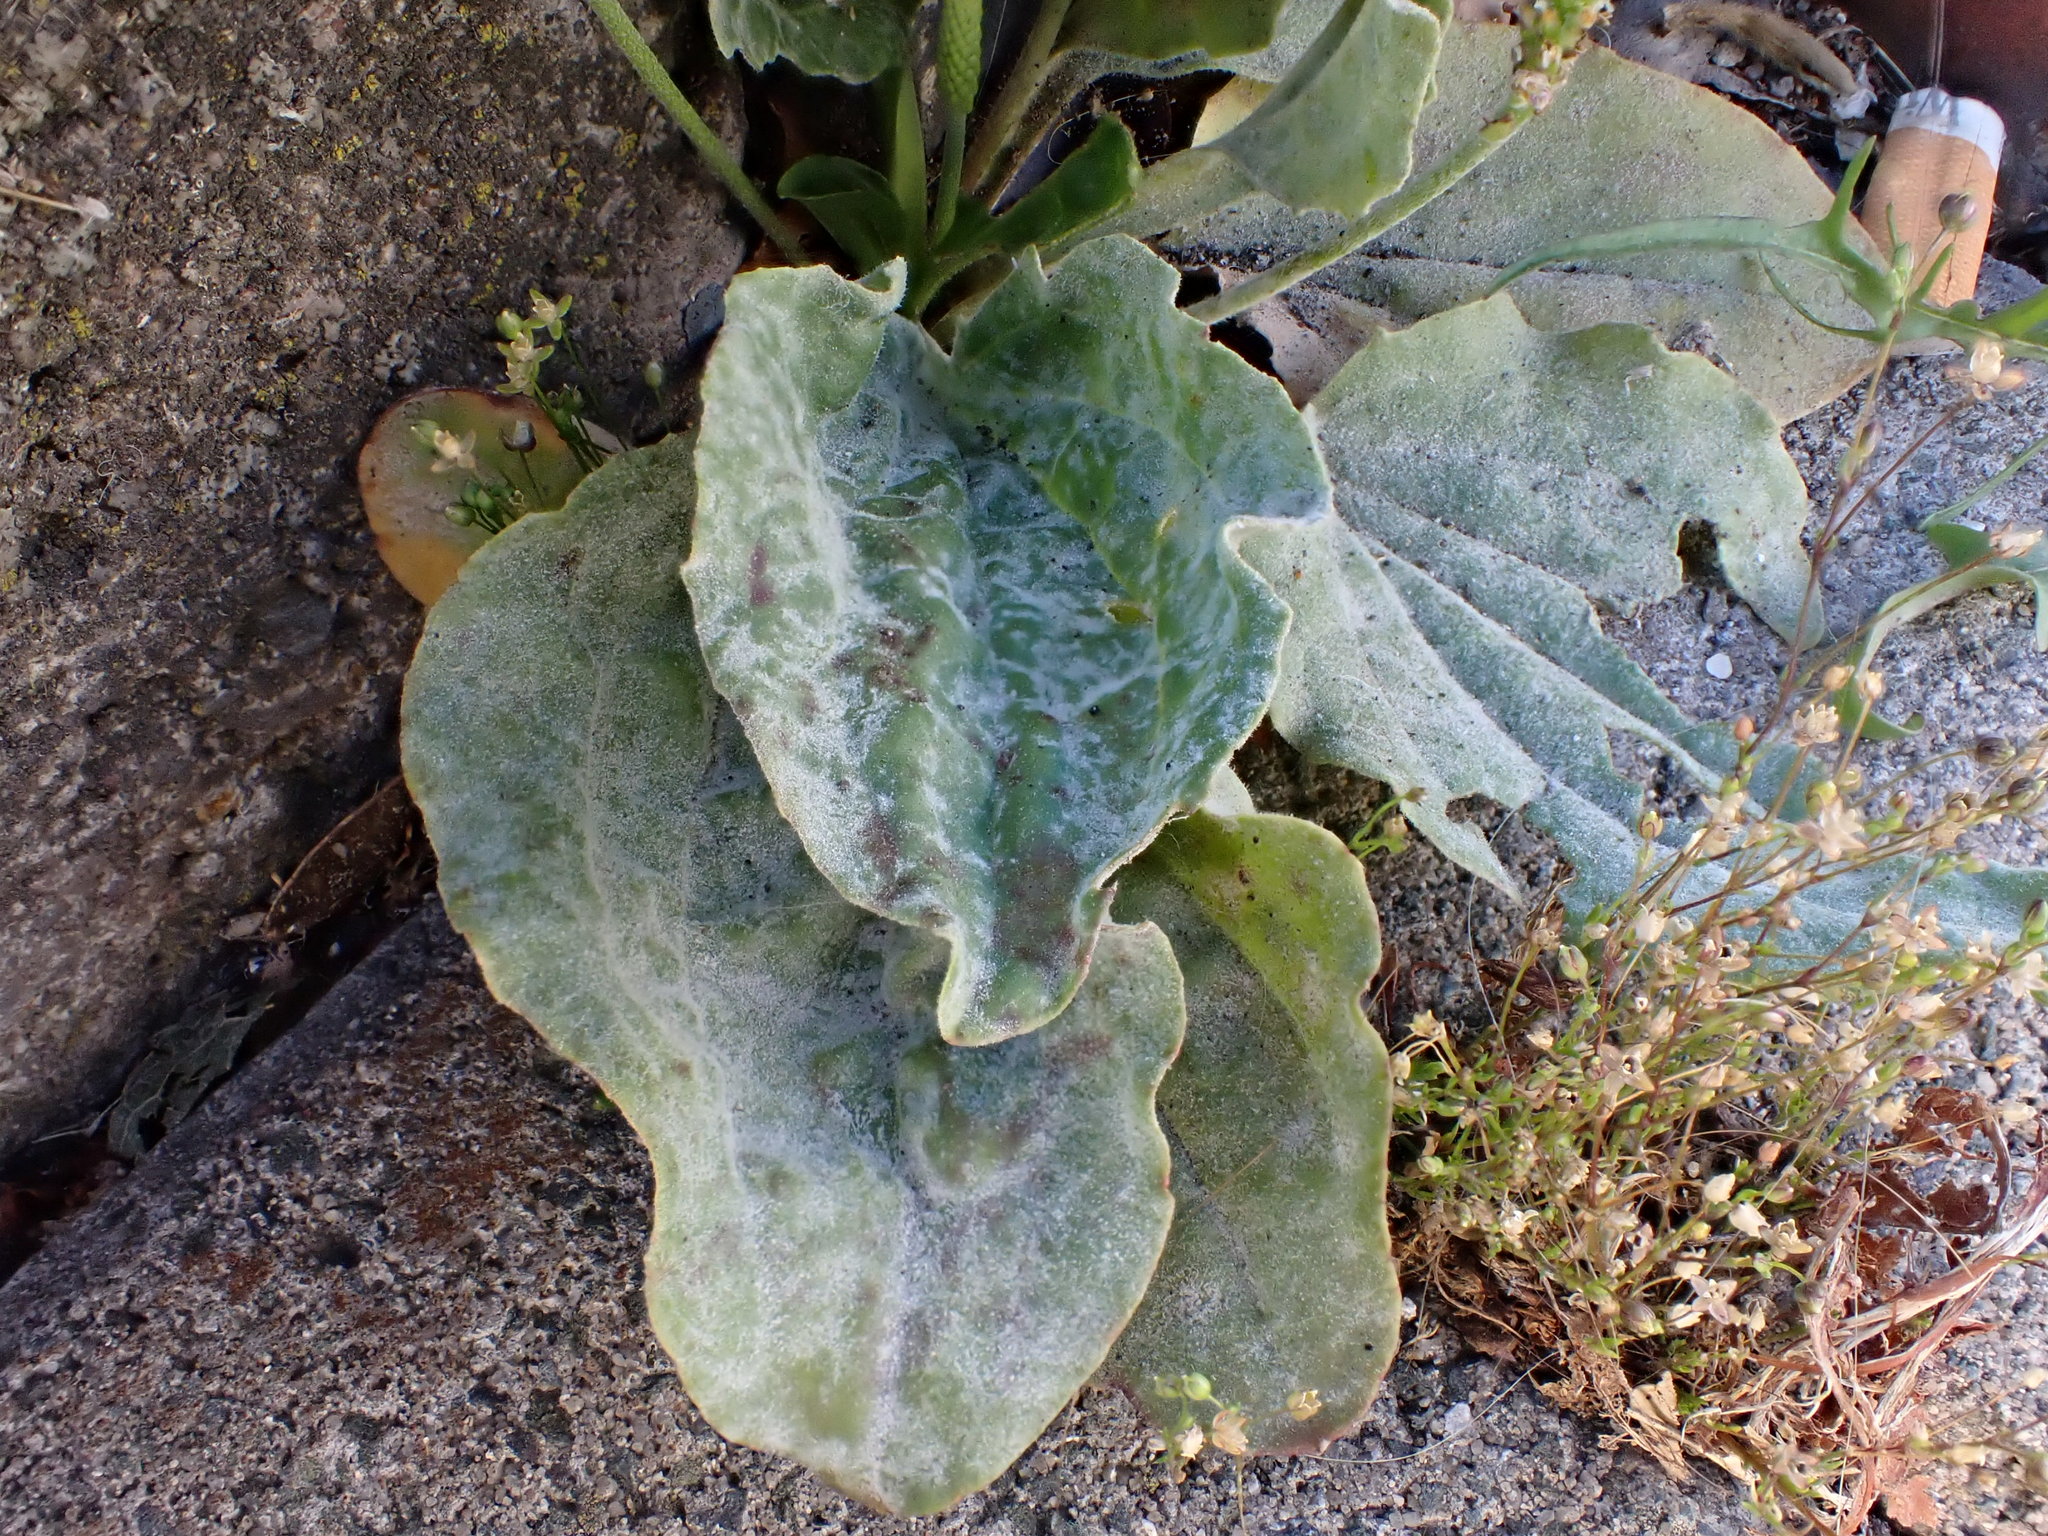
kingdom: Fungi
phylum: Ascomycota
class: Leotiomycetes
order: Helotiales
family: Erysiphaceae
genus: Golovinomyces
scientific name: Golovinomyces sordidus
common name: Plantain mildew
